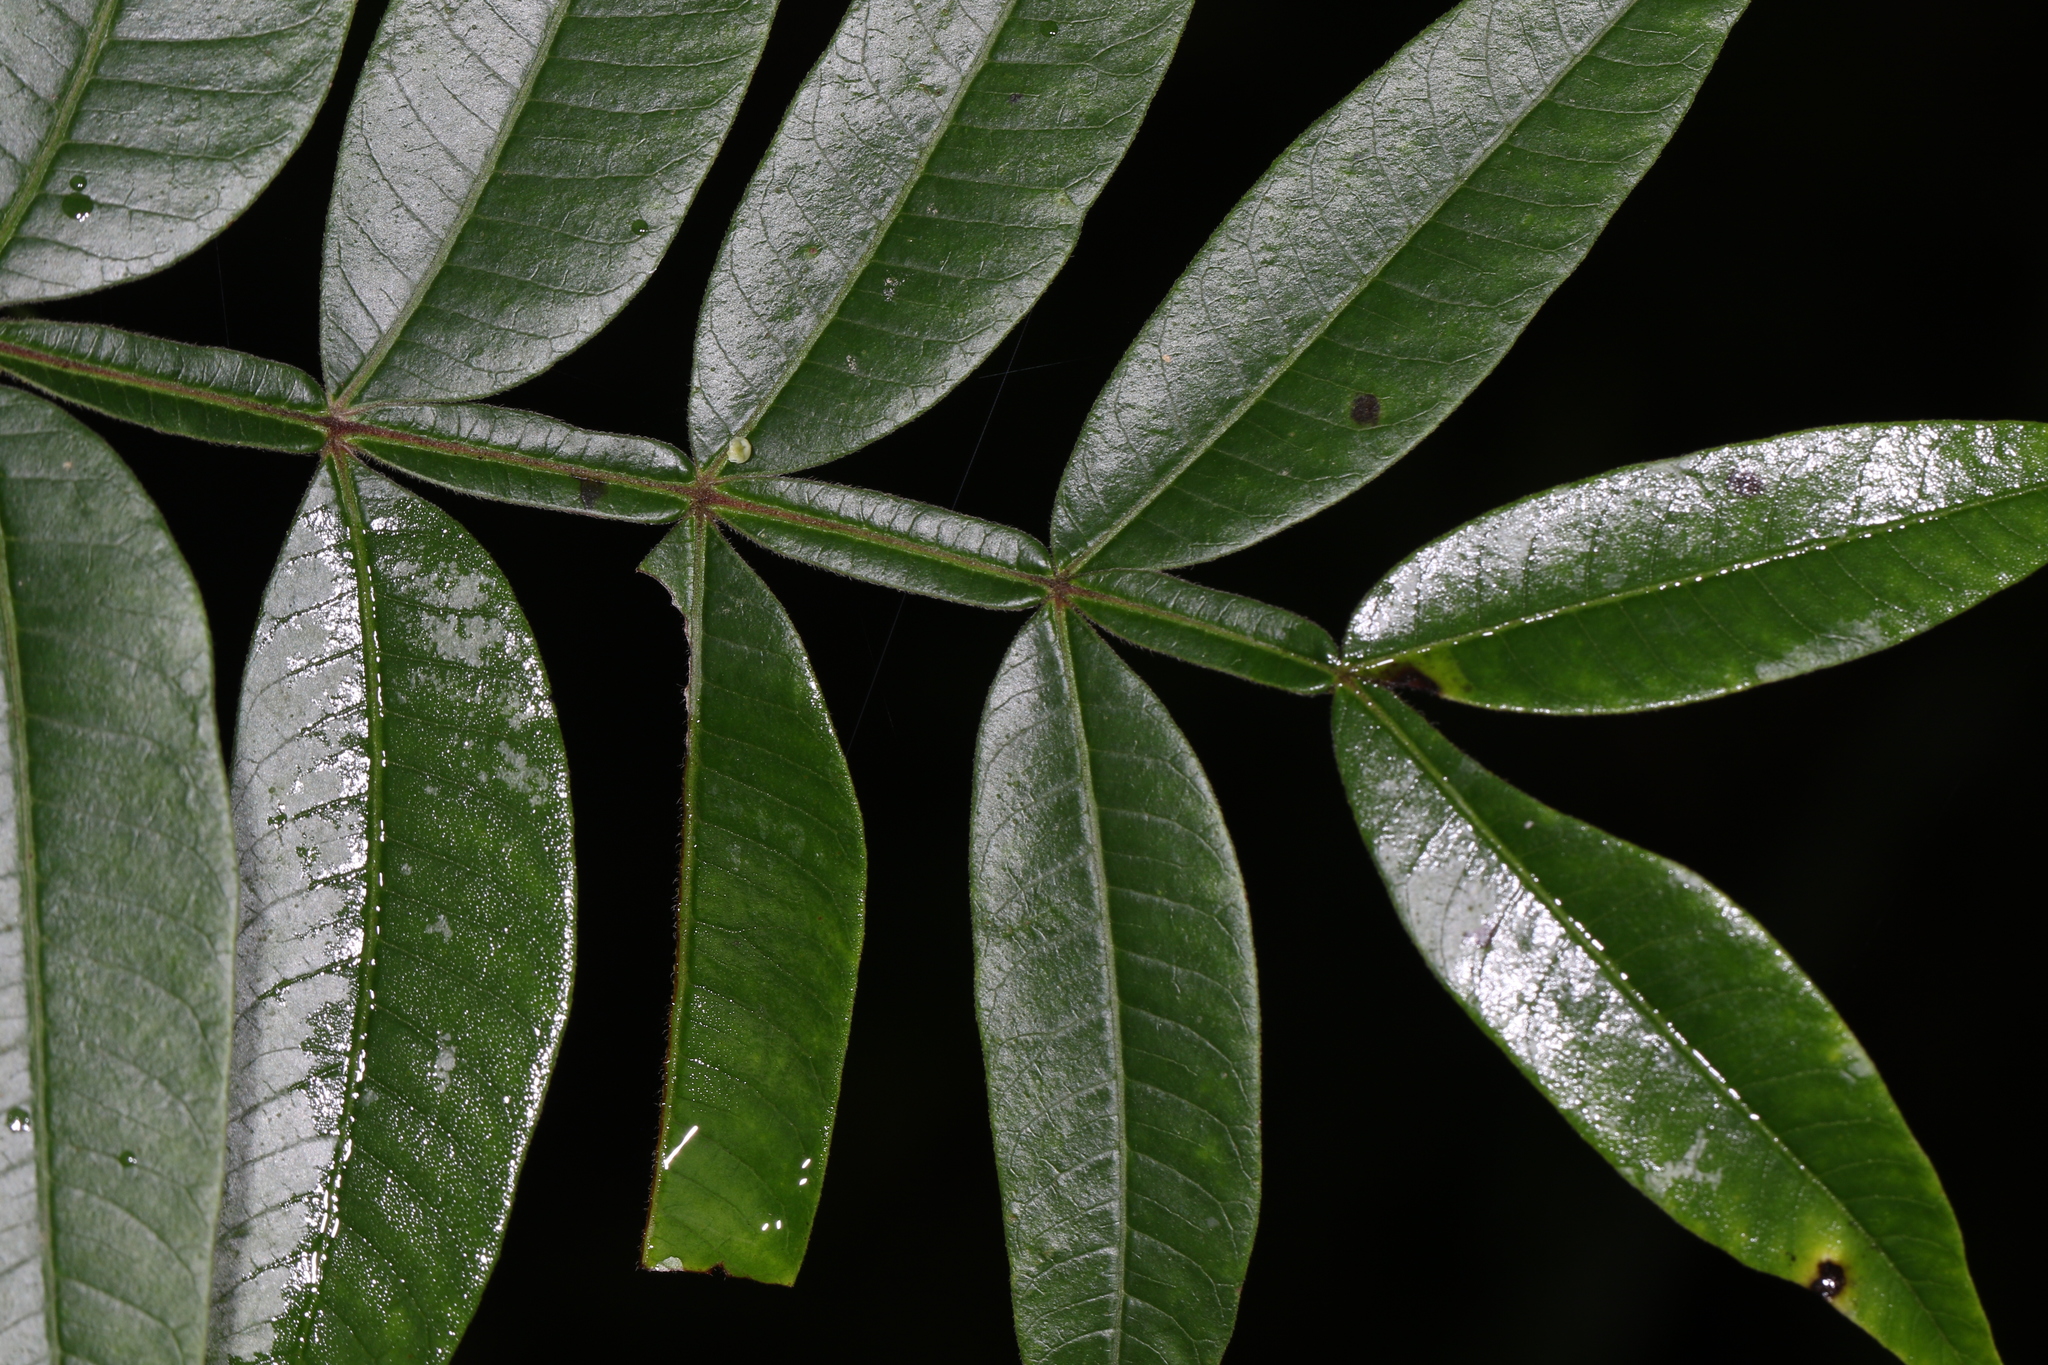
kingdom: Plantae
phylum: Tracheophyta
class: Magnoliopsida
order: Sapindales
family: Anacardiaceae
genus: Rhus
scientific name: Rhus copallina
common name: Shining sumac
